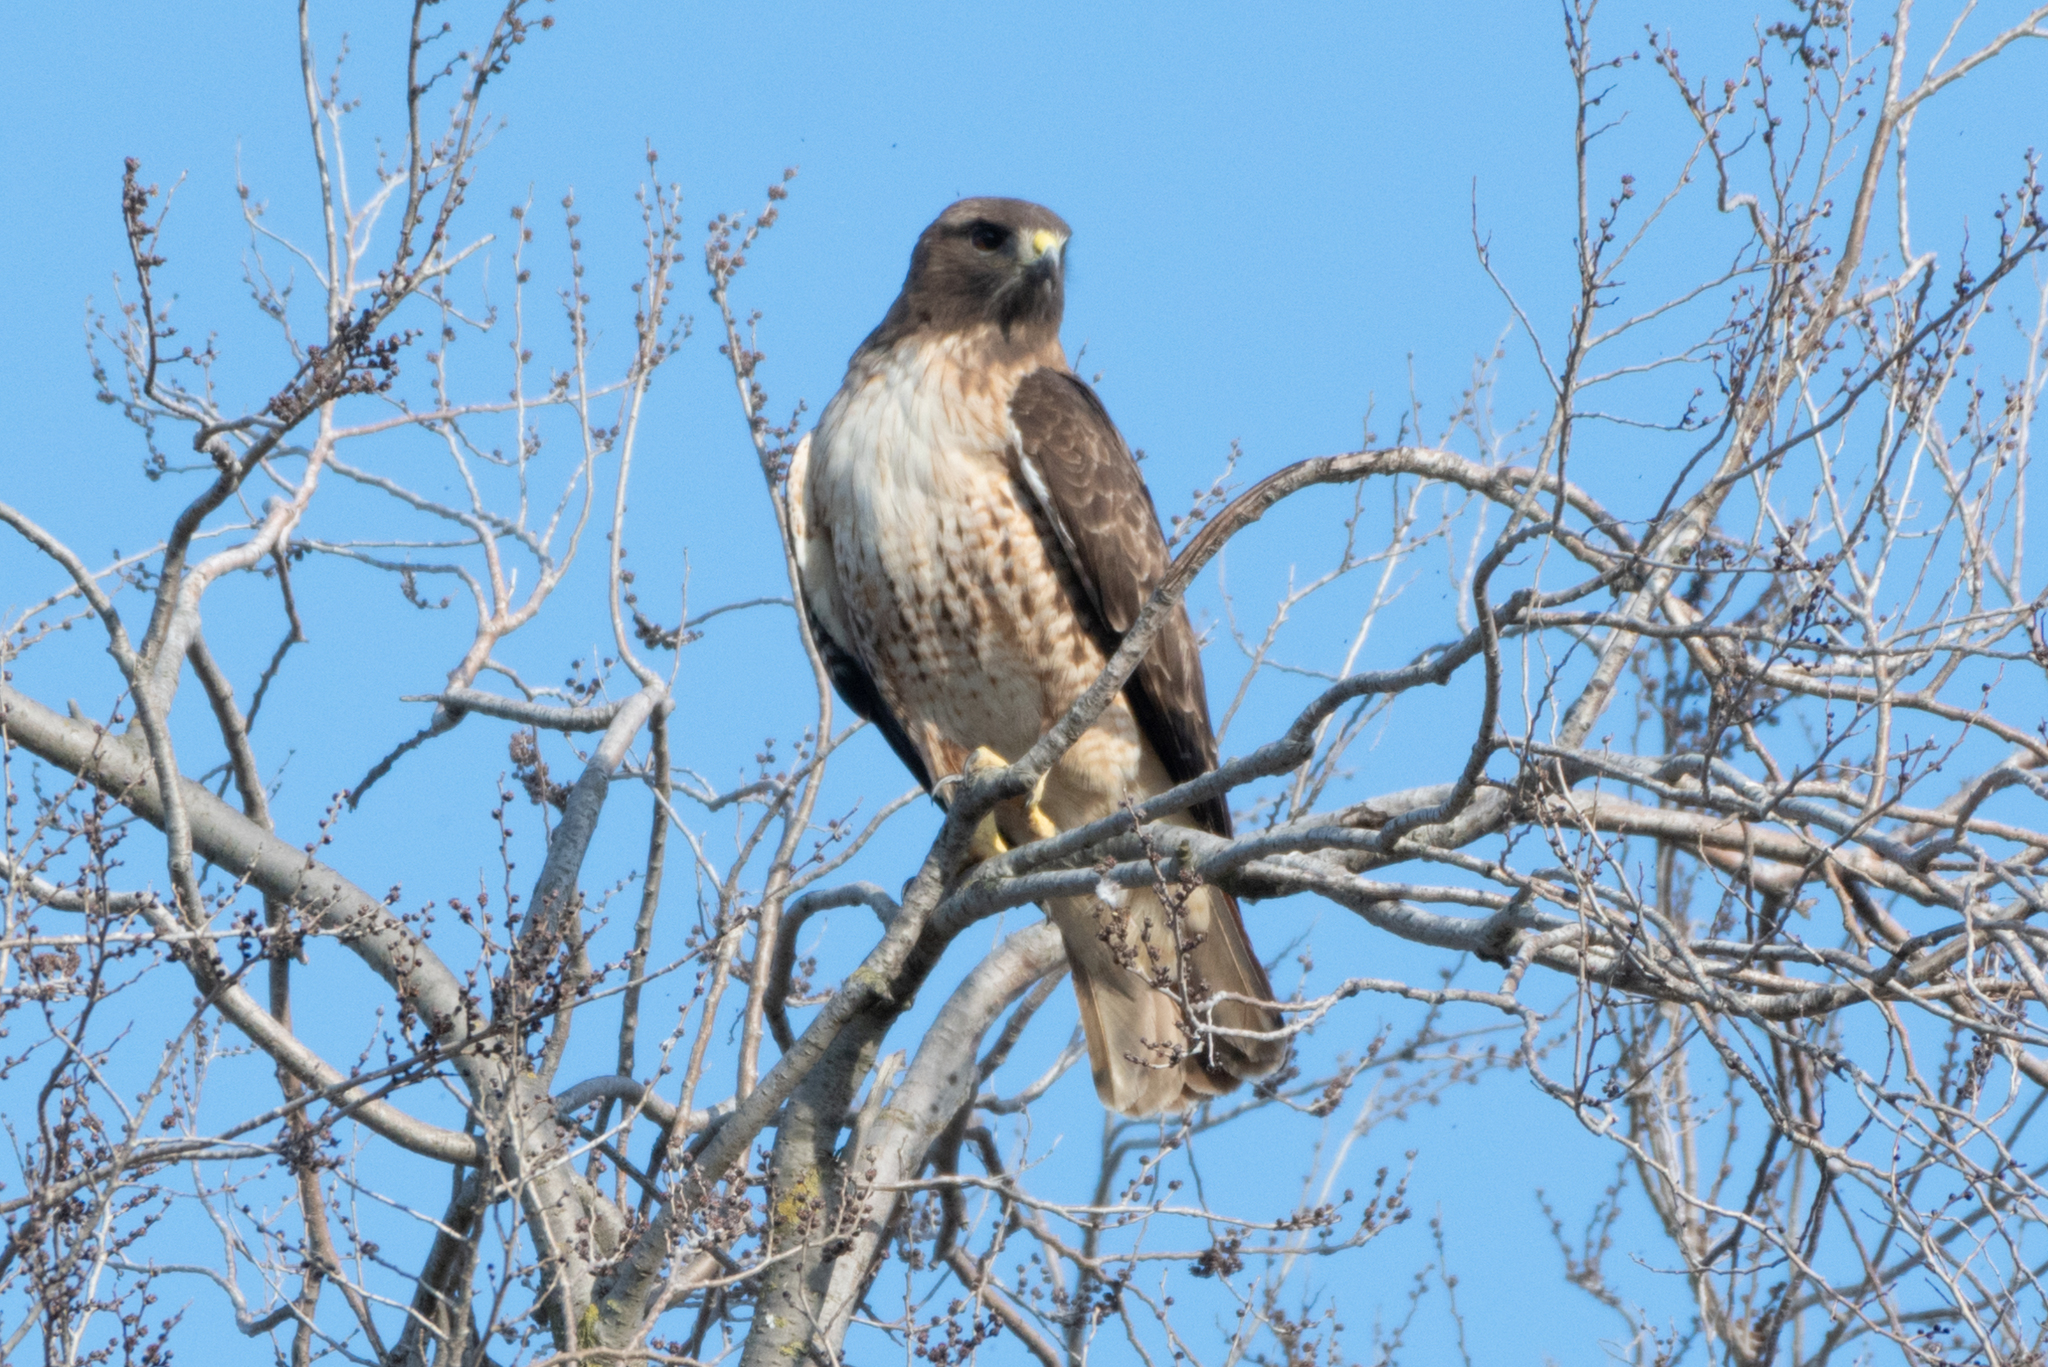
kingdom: Animalia
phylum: Chordata
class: Aves
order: Accipitriformes
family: Accipitridae
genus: Buteo
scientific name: Buteo jamaicensis
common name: Red-tailed hawk
